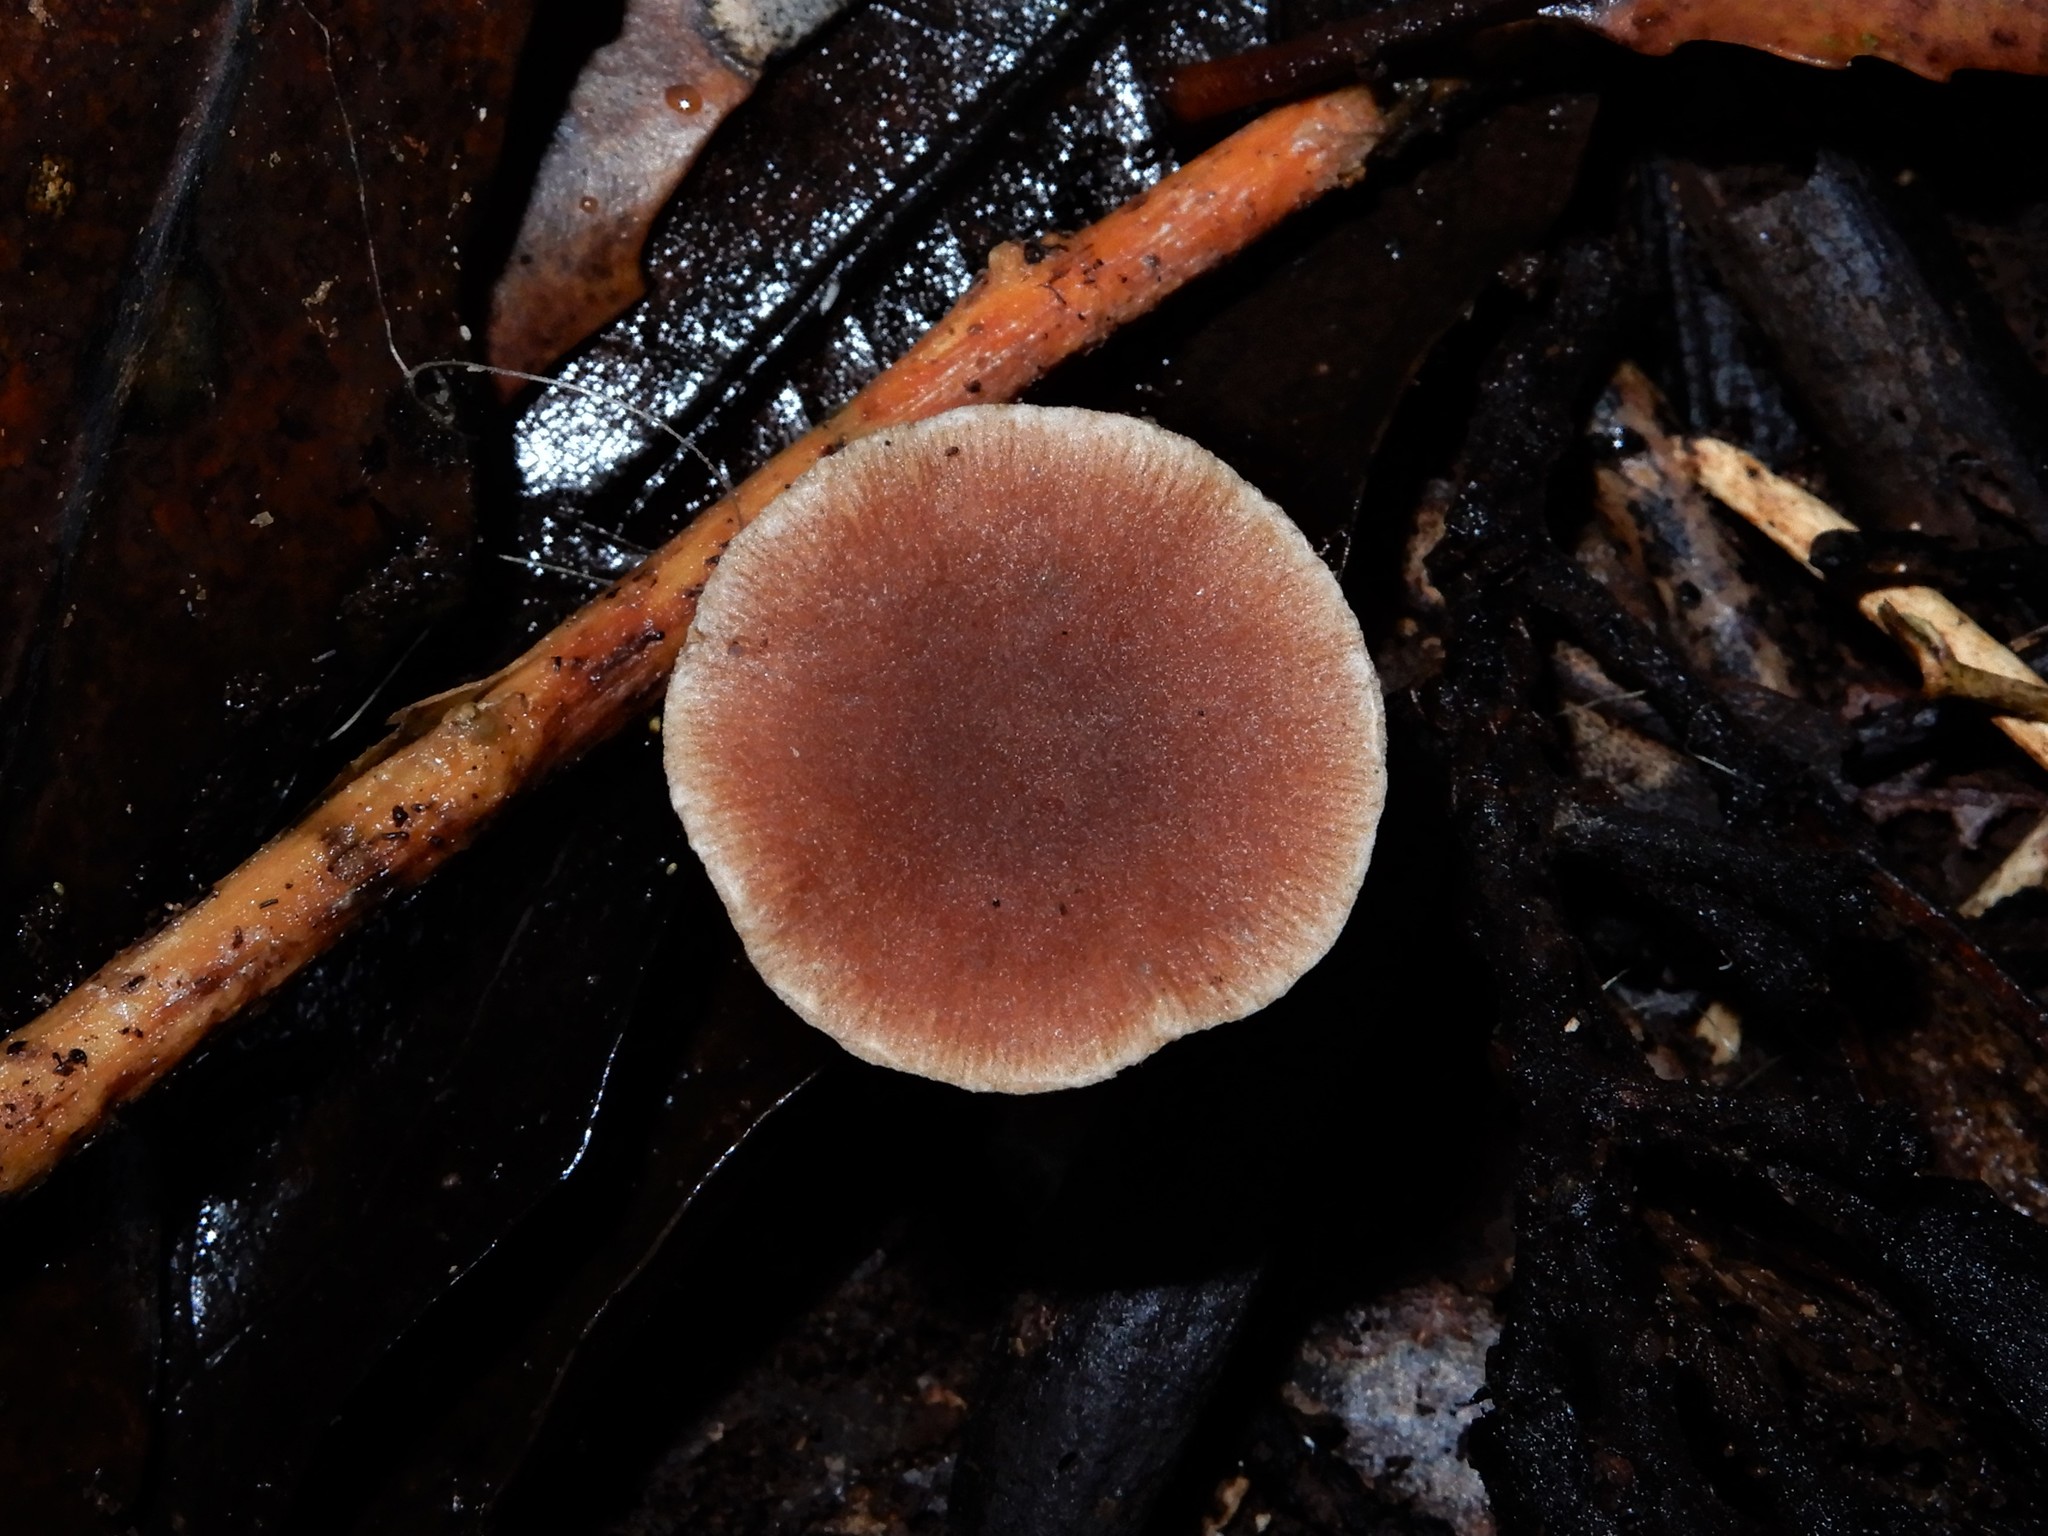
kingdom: Fungi
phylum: Basidiomycota
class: Agaricomycetes
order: Agaricales
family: Tubariaceae
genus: Tubaria
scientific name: Tubaria similis
